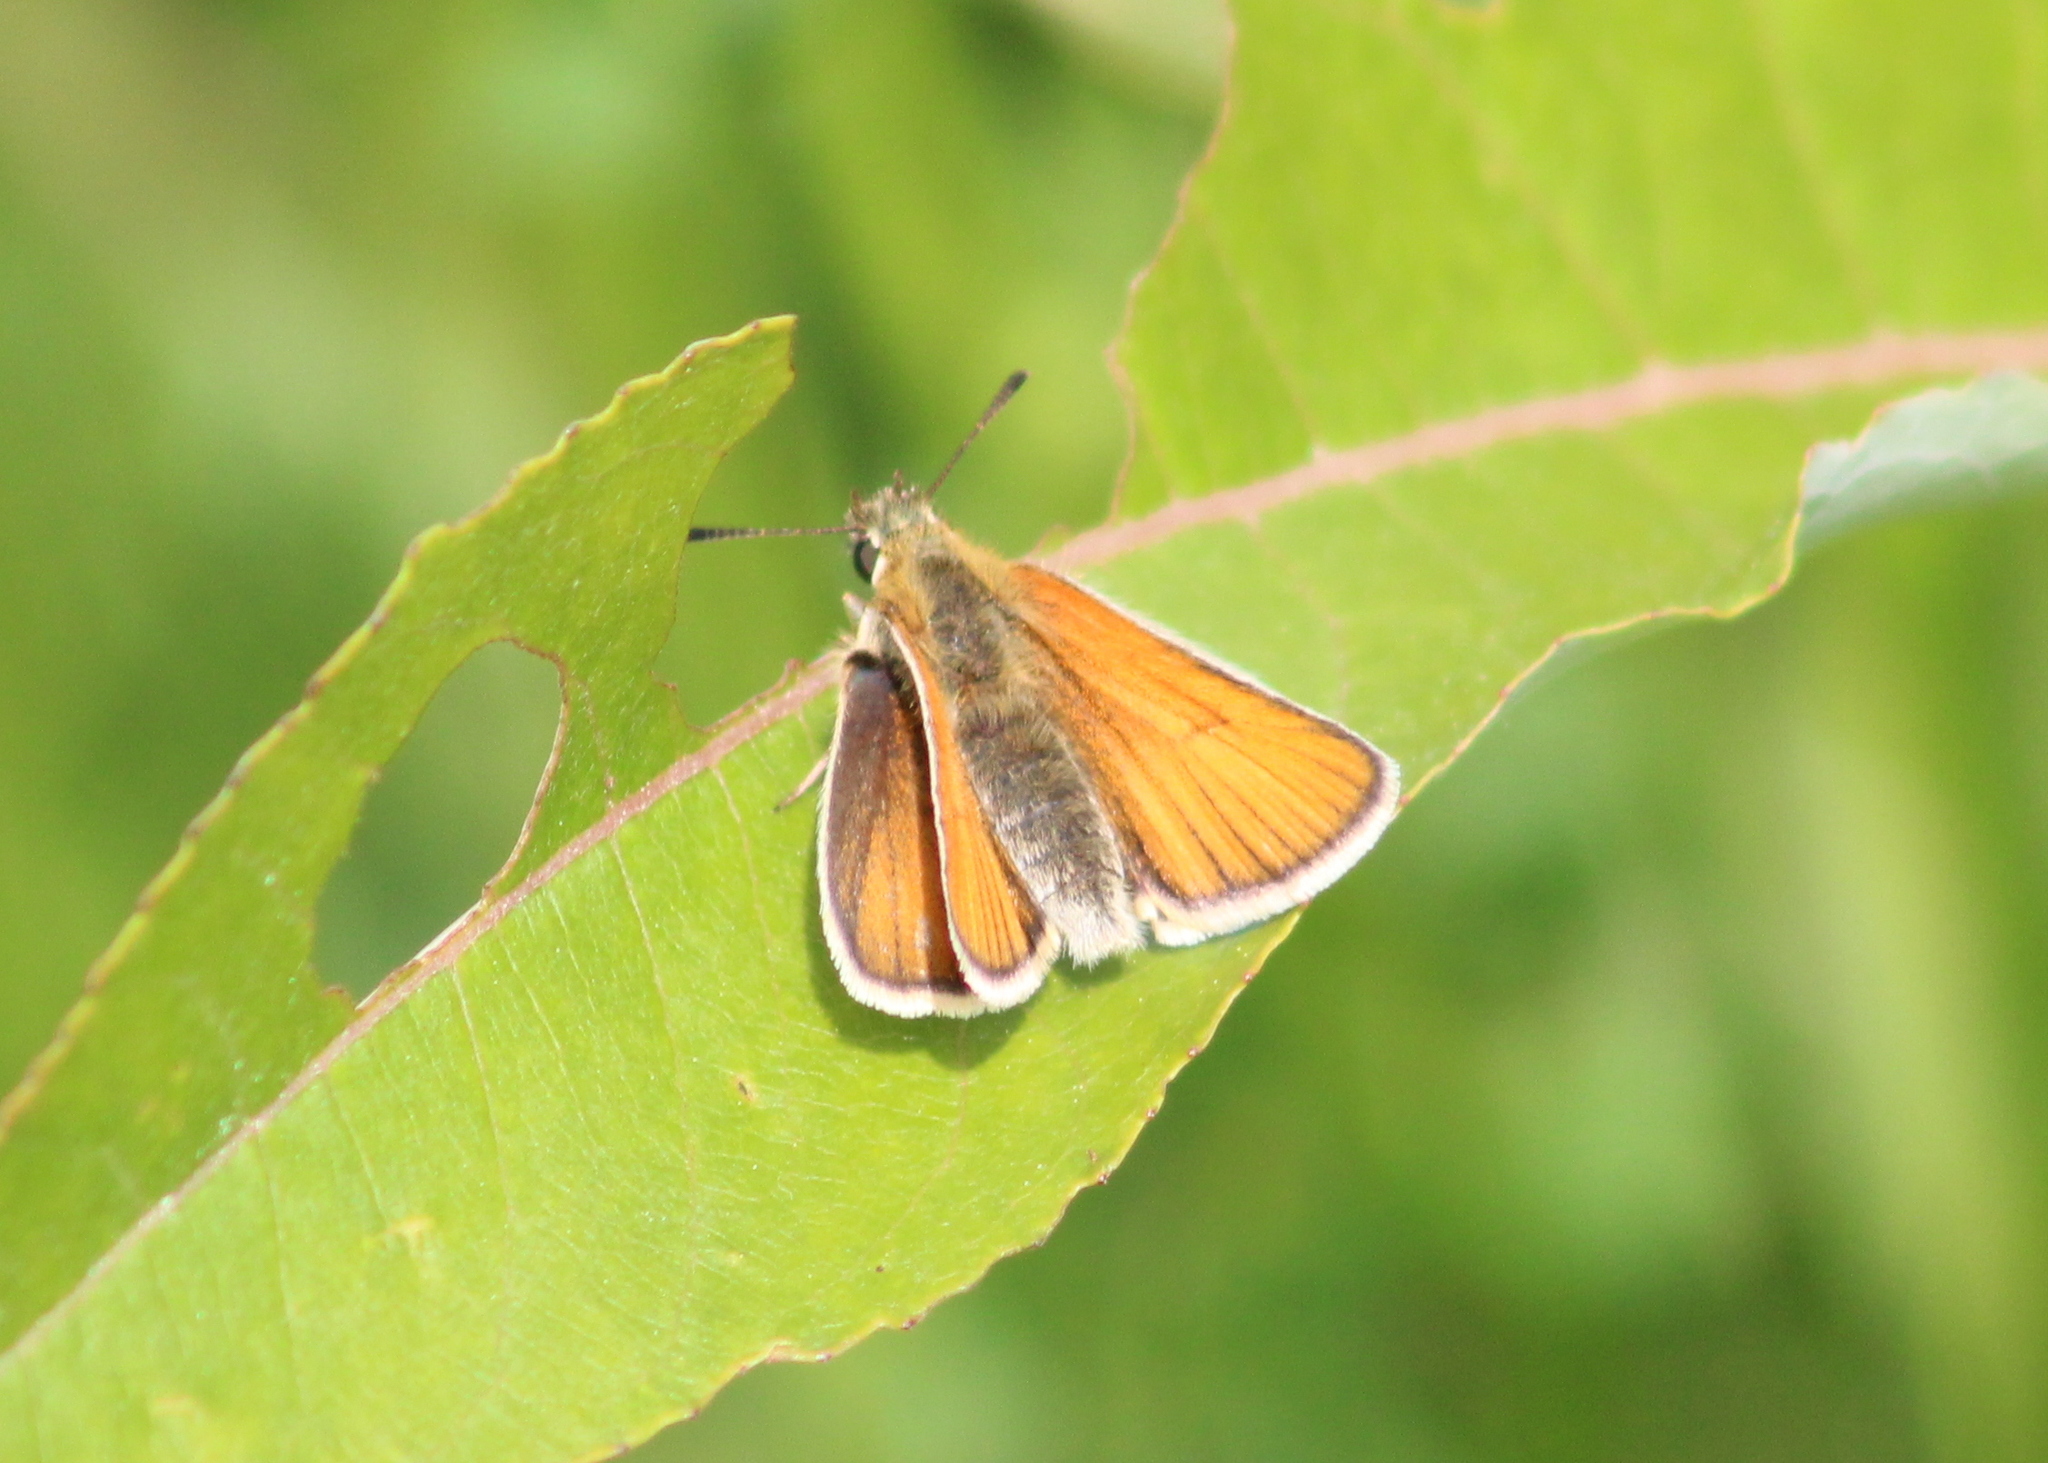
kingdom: Animalia
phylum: Arthropoda
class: Insecta
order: Lepidoptera
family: Hesperiidae
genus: Thymelicus
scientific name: Thymelicus lineola
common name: Essex skipper
